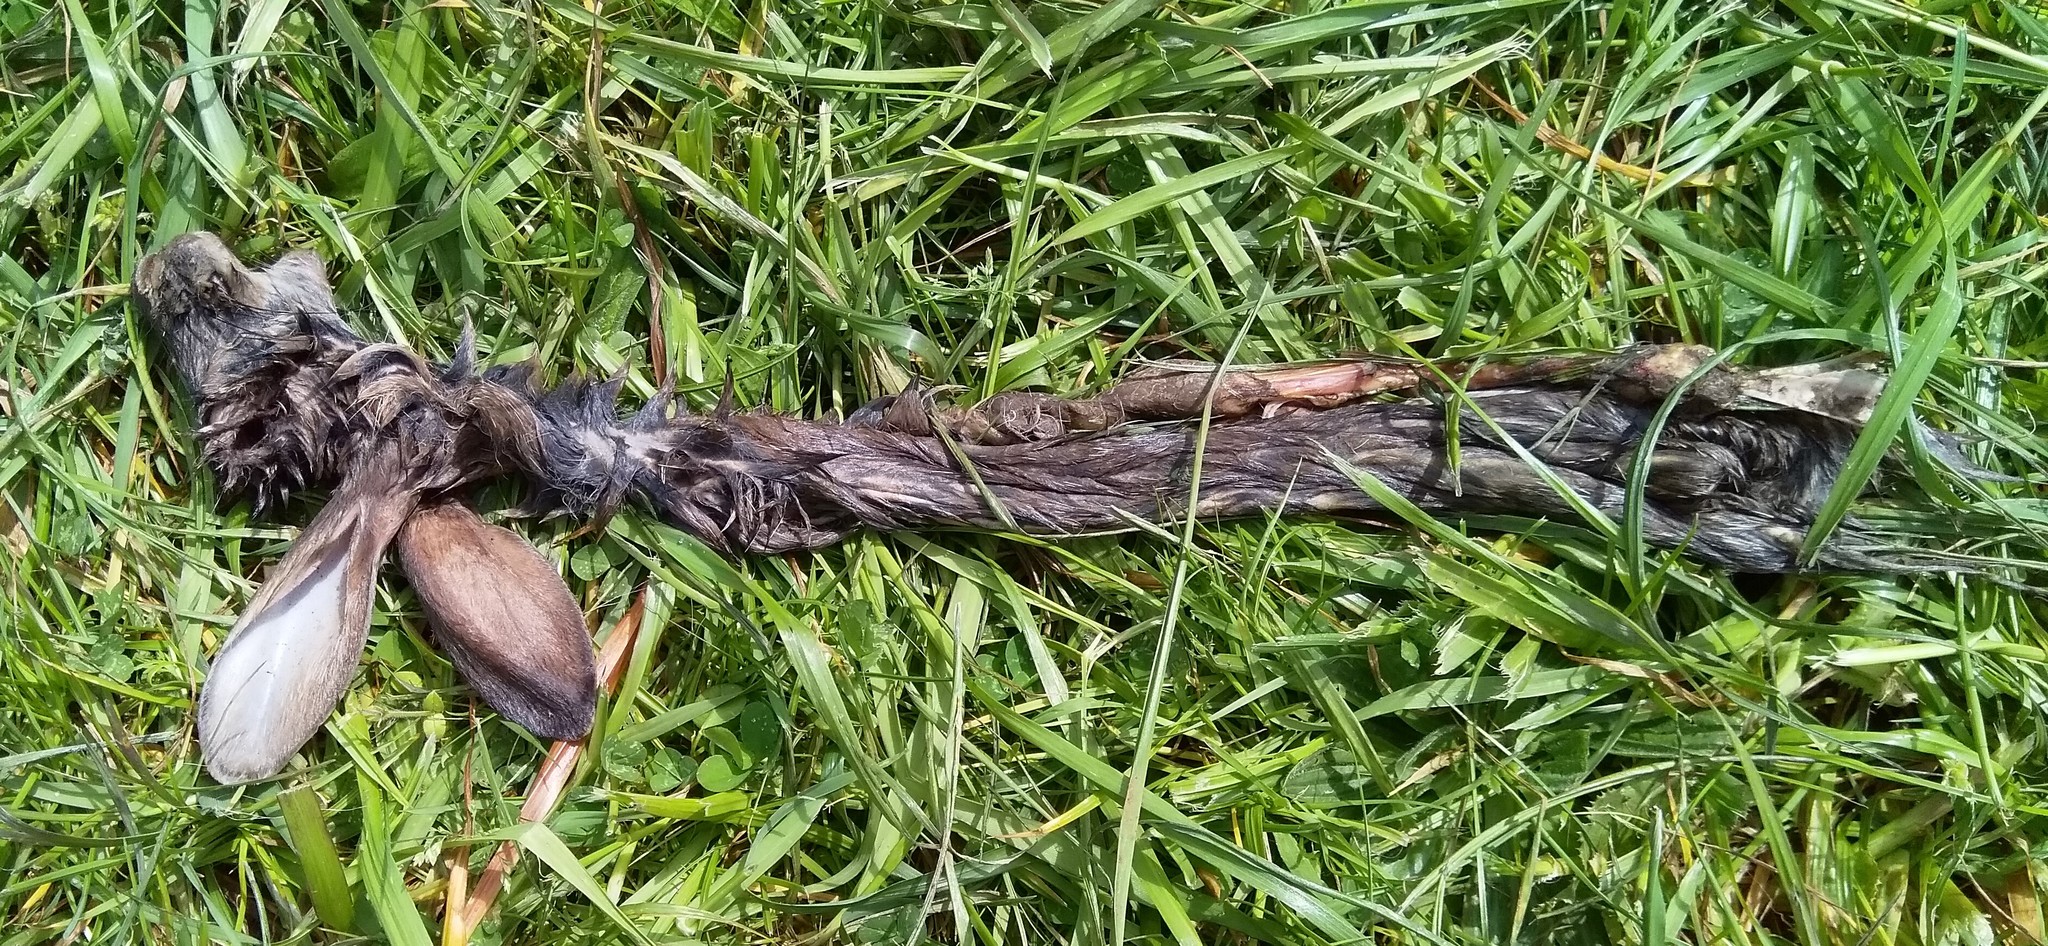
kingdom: Animalia
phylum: Chordata
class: Mammalia
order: Lagomorpha
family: Leporidae
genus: Lepus
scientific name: Lepus europaeus
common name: European hare
